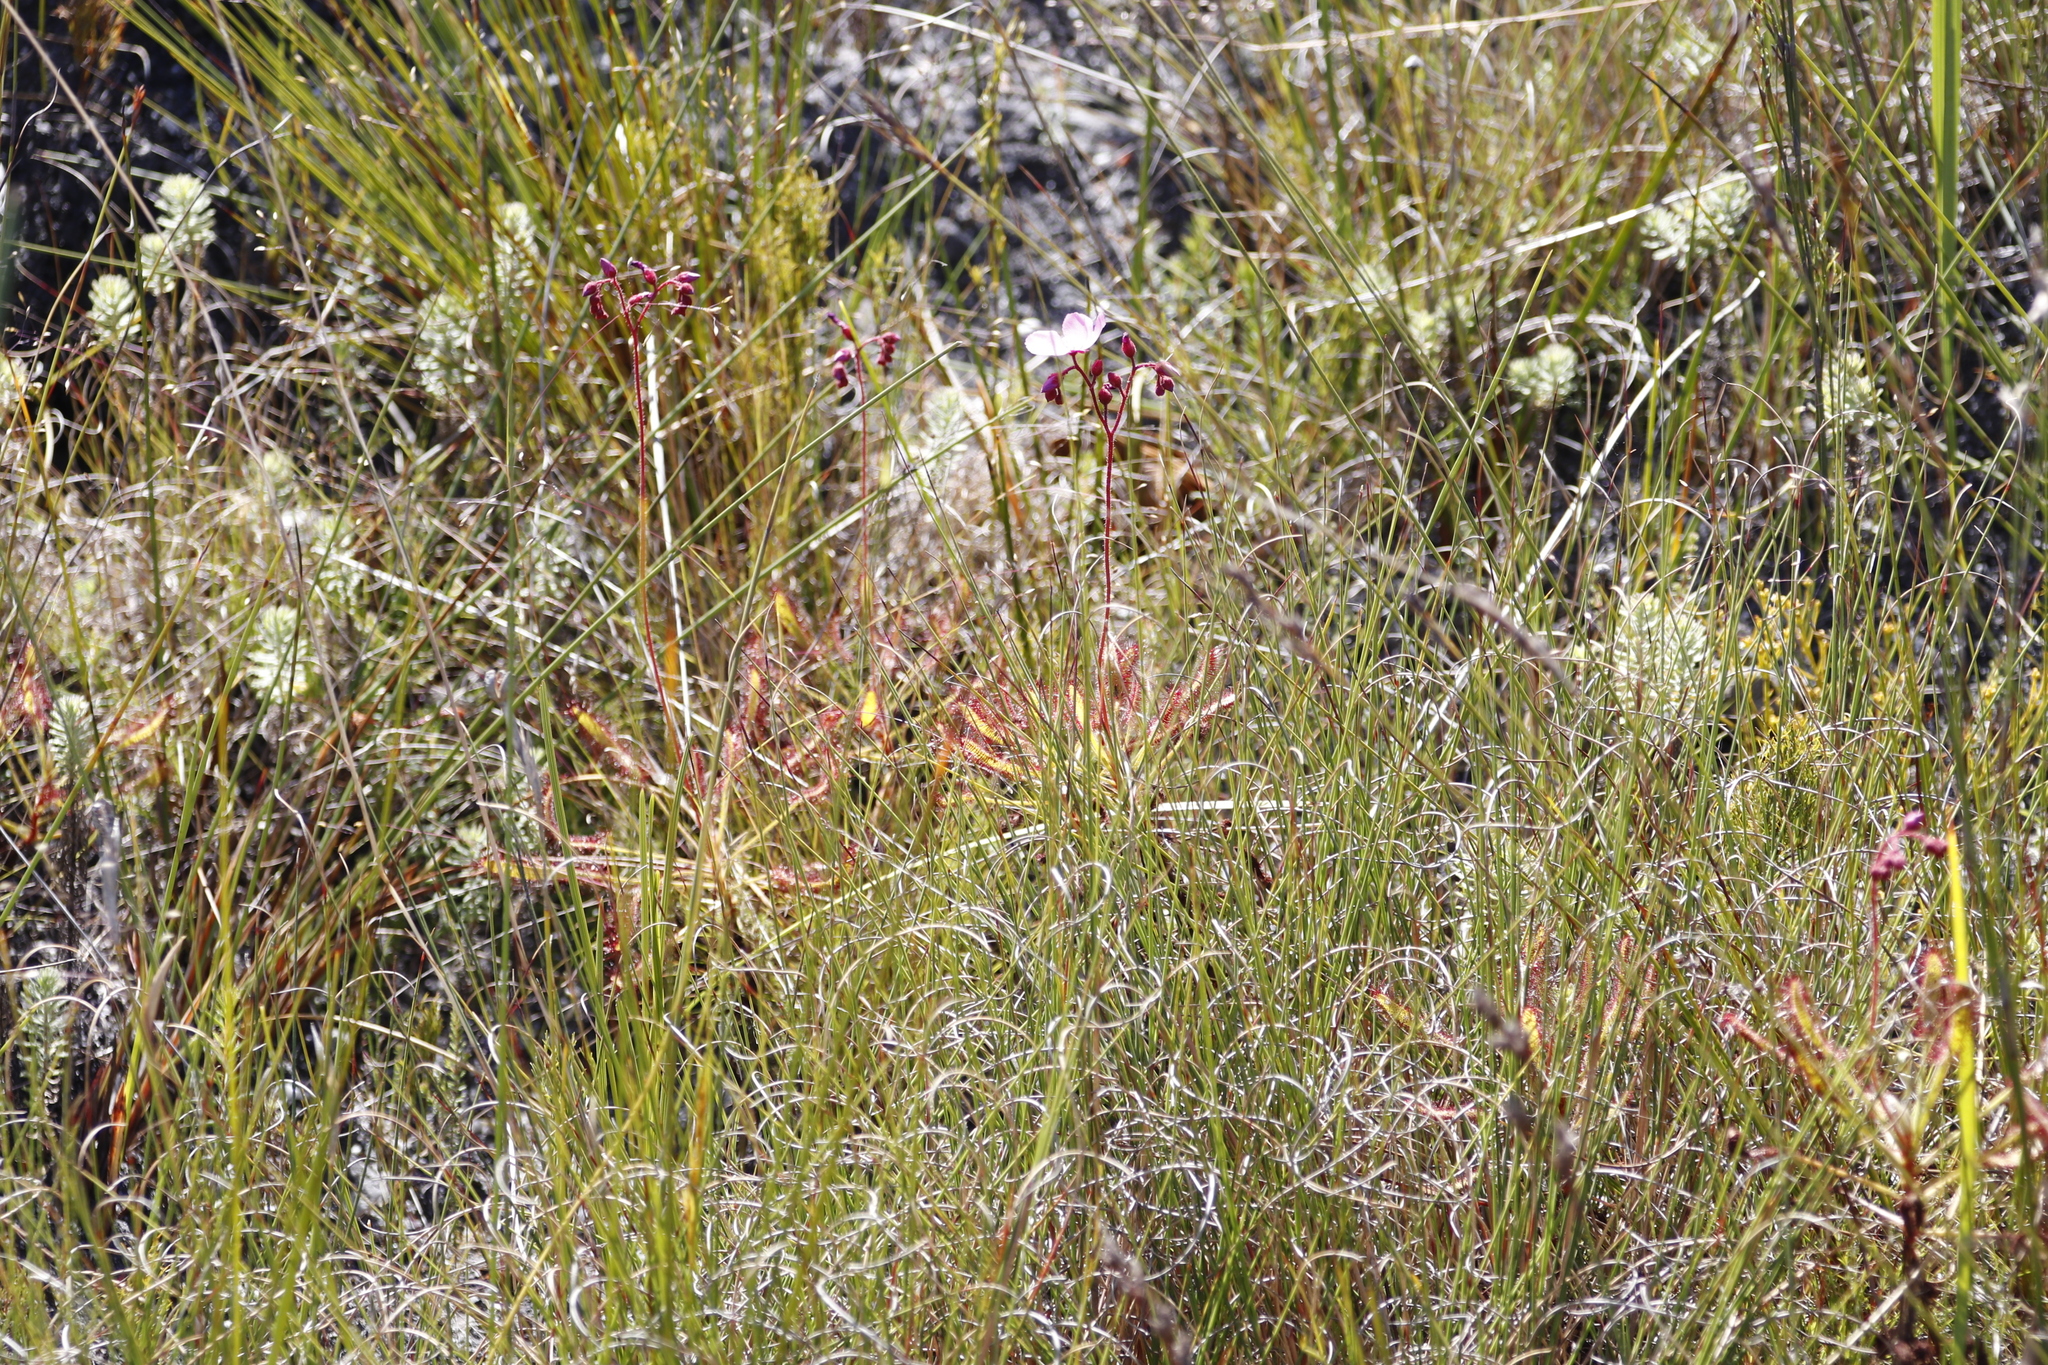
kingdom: Plantae
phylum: Tracheophyta
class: Magnoliopsida
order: Caryophyllales
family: Droseraceae
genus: Drosera
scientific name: Drosera ramentacea
